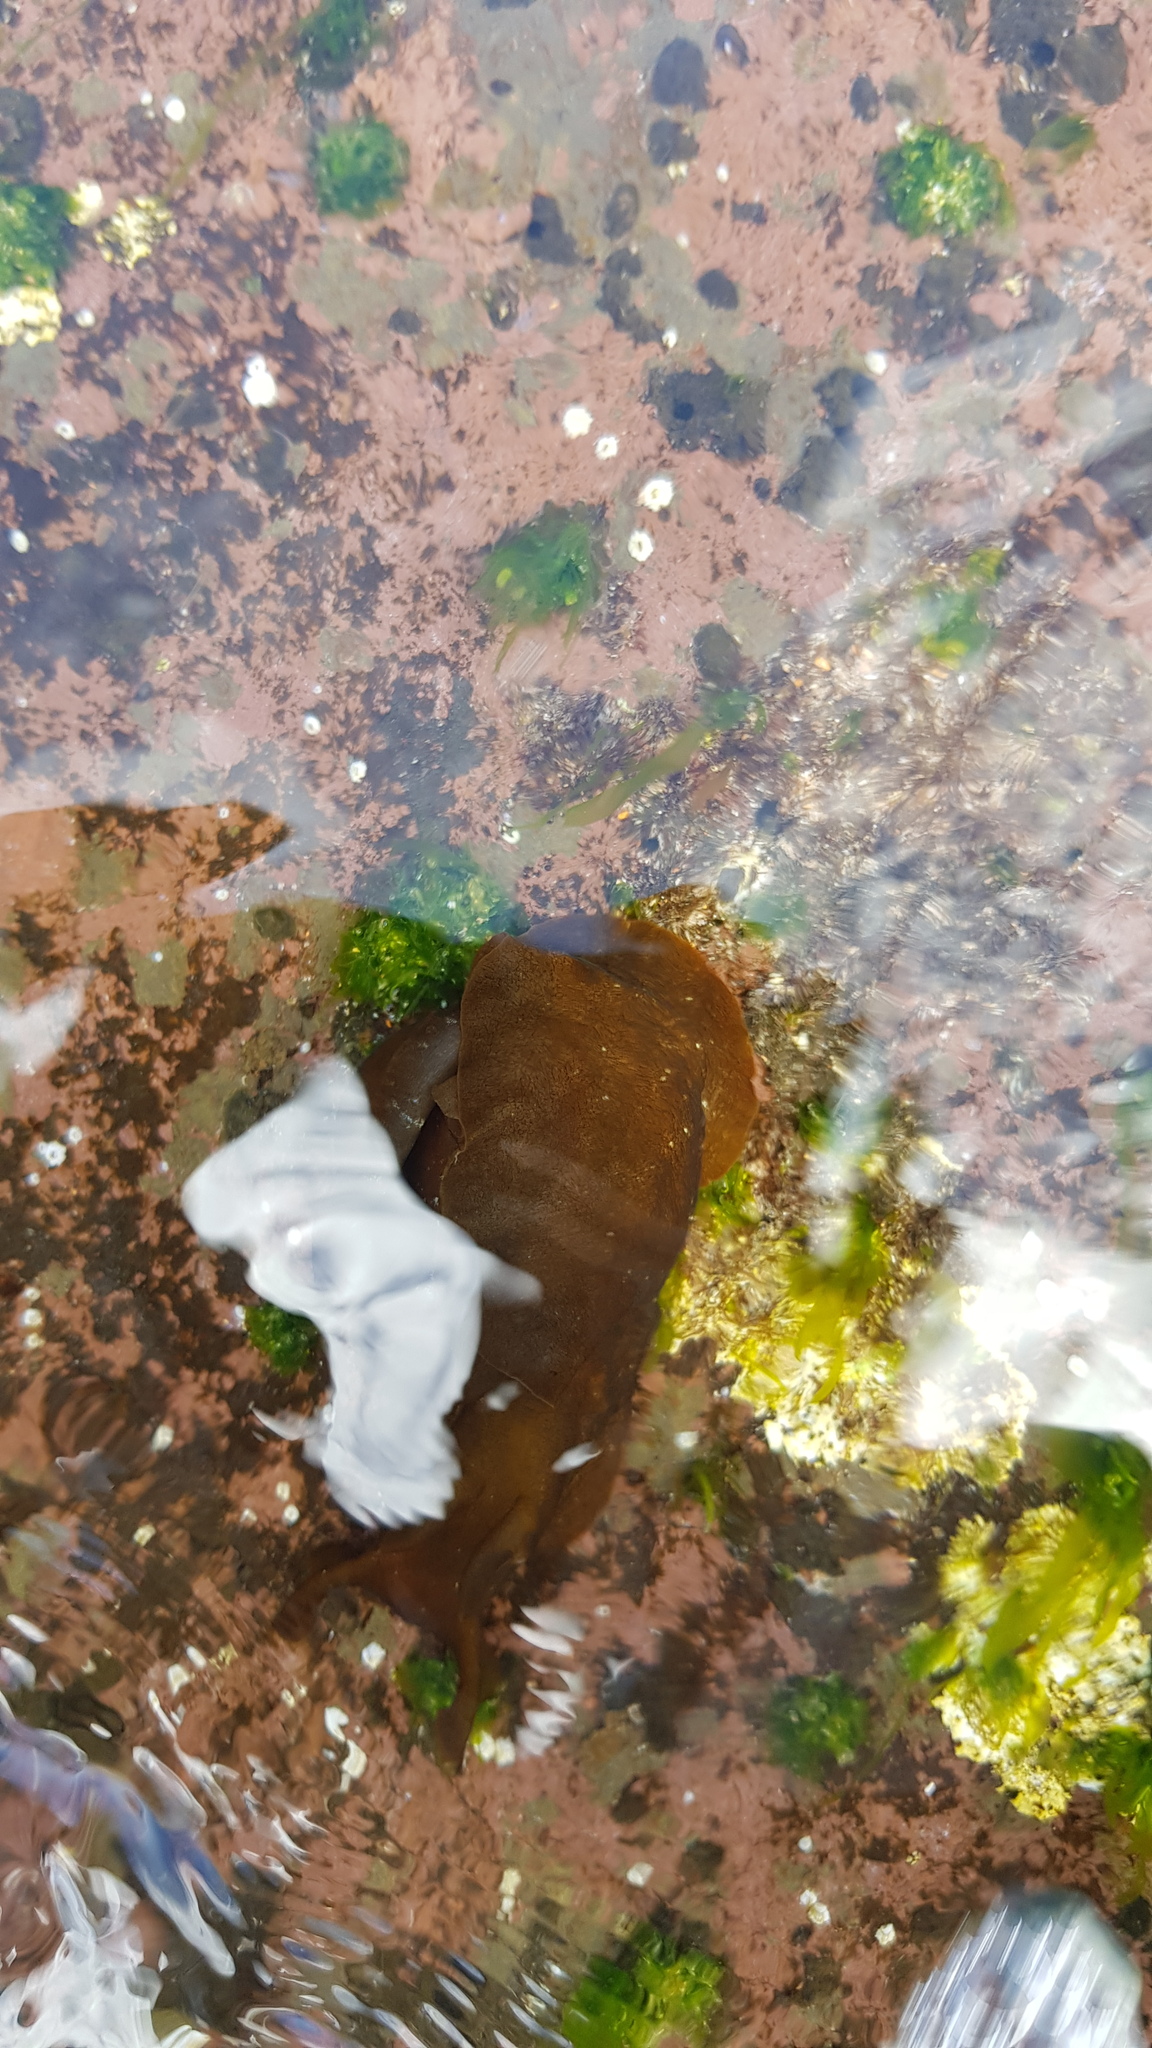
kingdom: Animalia
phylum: Mollusca
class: Gastropoda
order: Aplysiida
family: Aplysiidae
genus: Aplysia
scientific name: Aplysia juliana
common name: Walking sea hare
